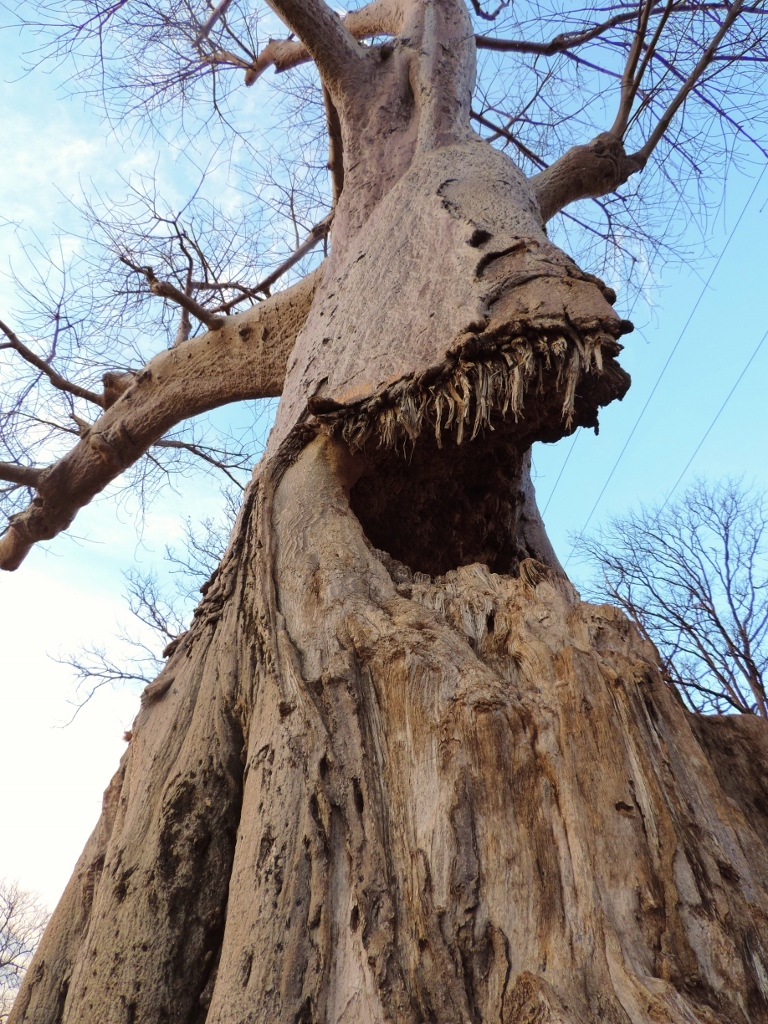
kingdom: Plantae
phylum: Tracheophyta
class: Magnoliopsida
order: Malvales
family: Malvaceae
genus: Adansonia
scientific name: Adansonia digitata
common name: Dead-rat-tree
